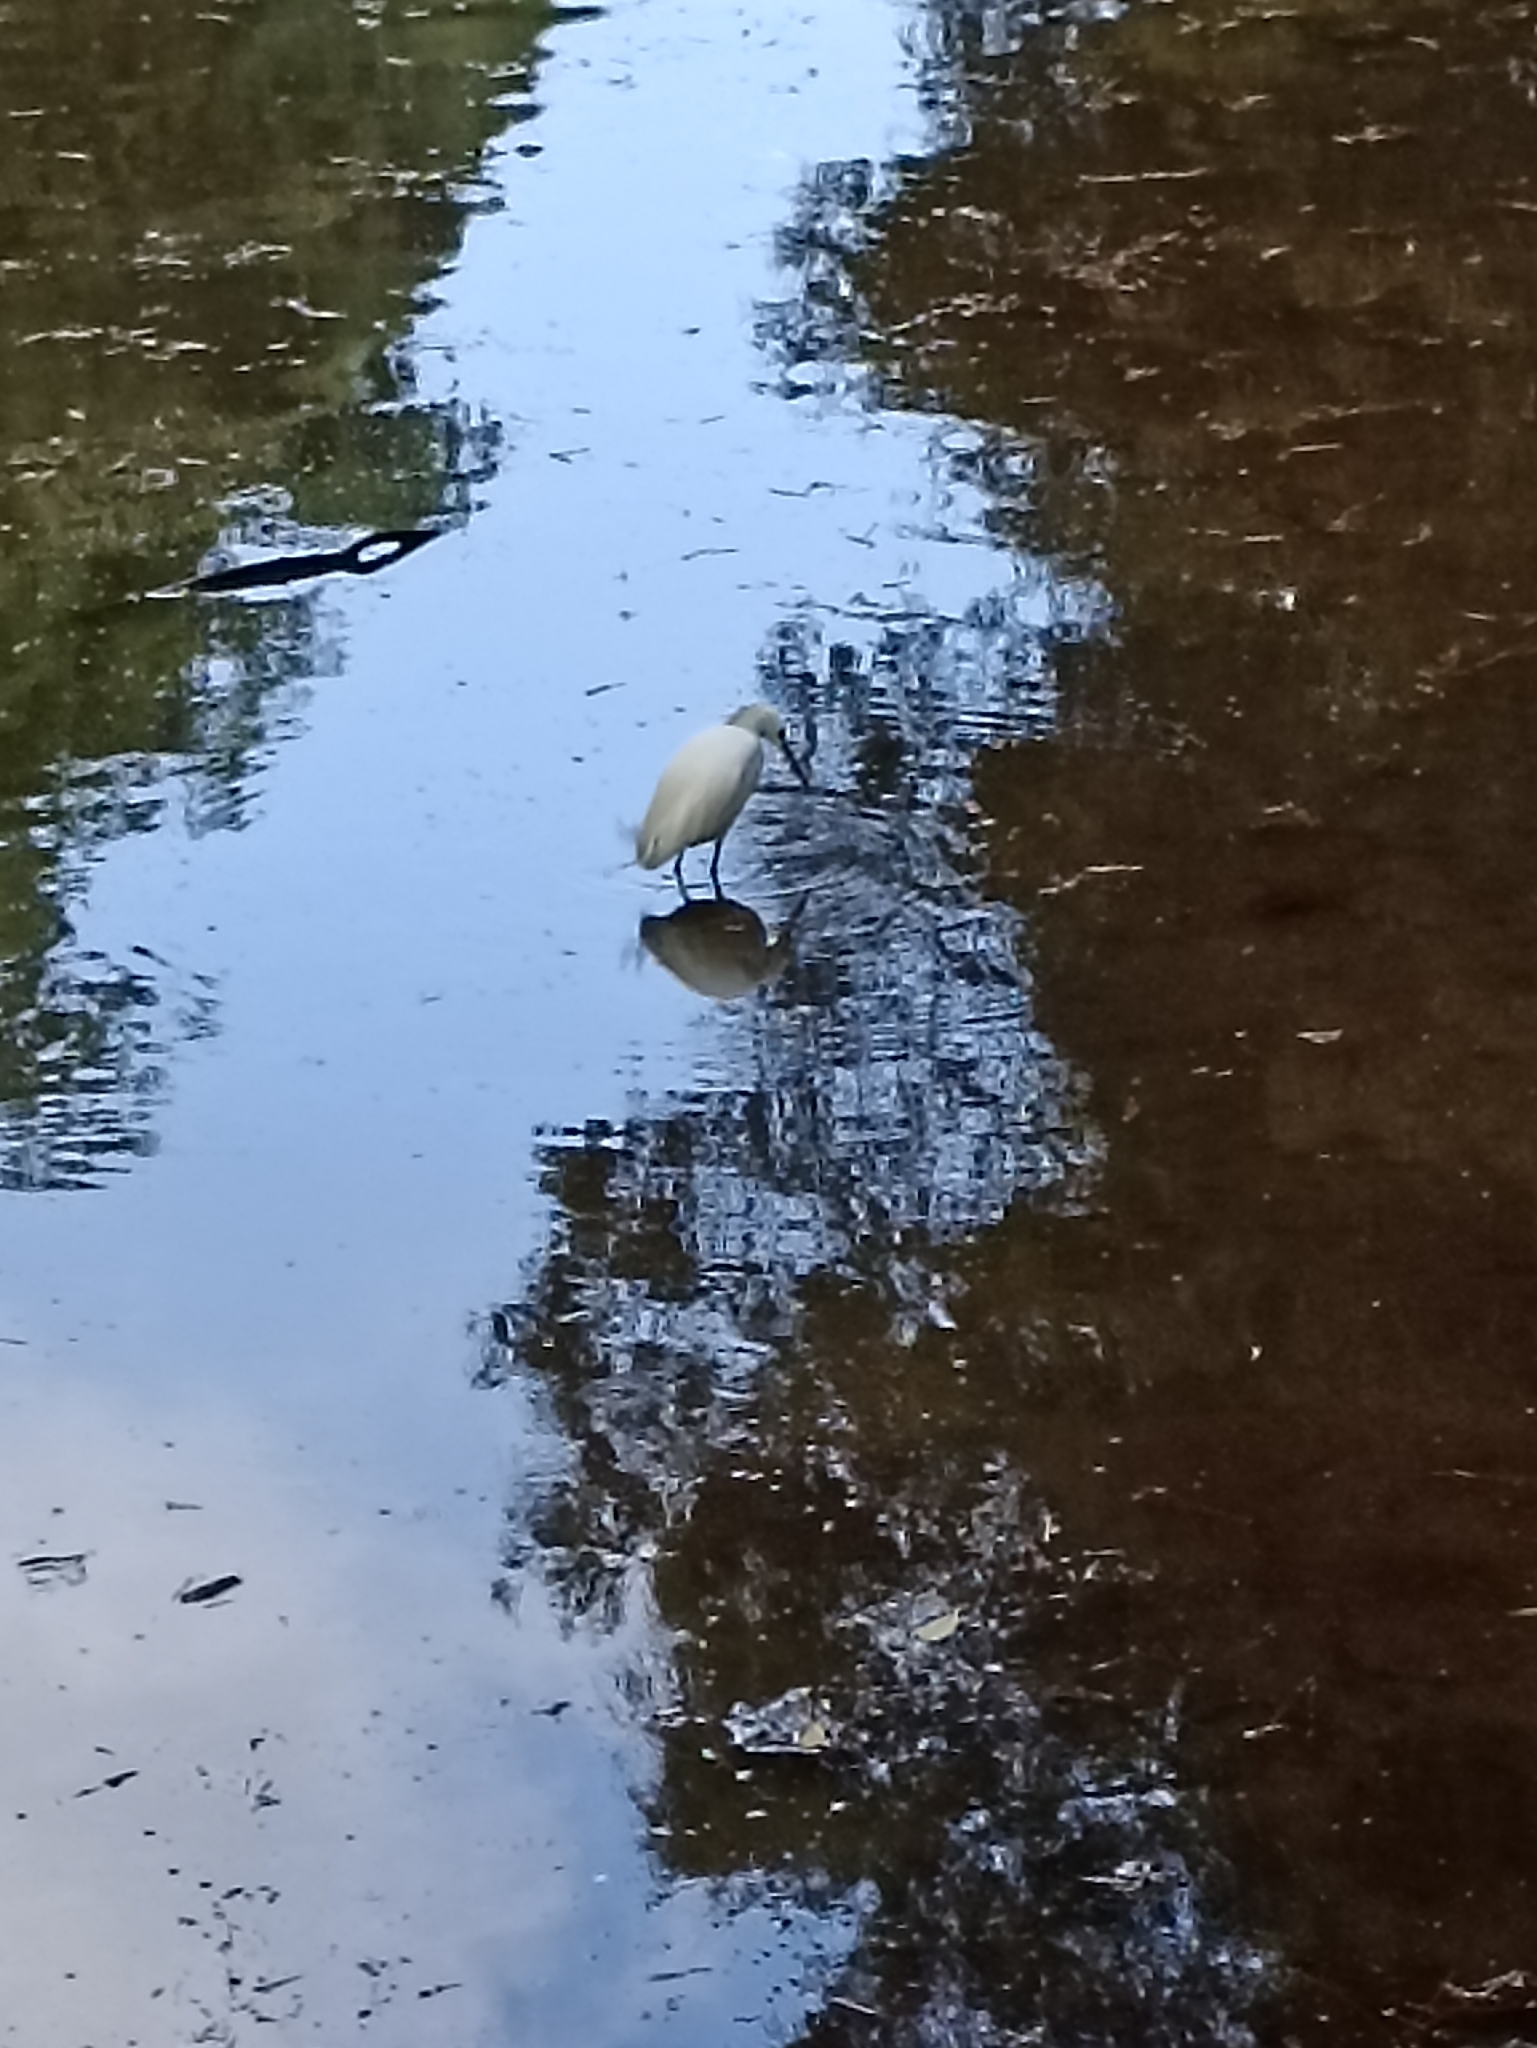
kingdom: Animalia
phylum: Chordata
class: Aves
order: Pelecaniformes
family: Ardeidae
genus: Egretta
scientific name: Egretta thula
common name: Snowy egret
